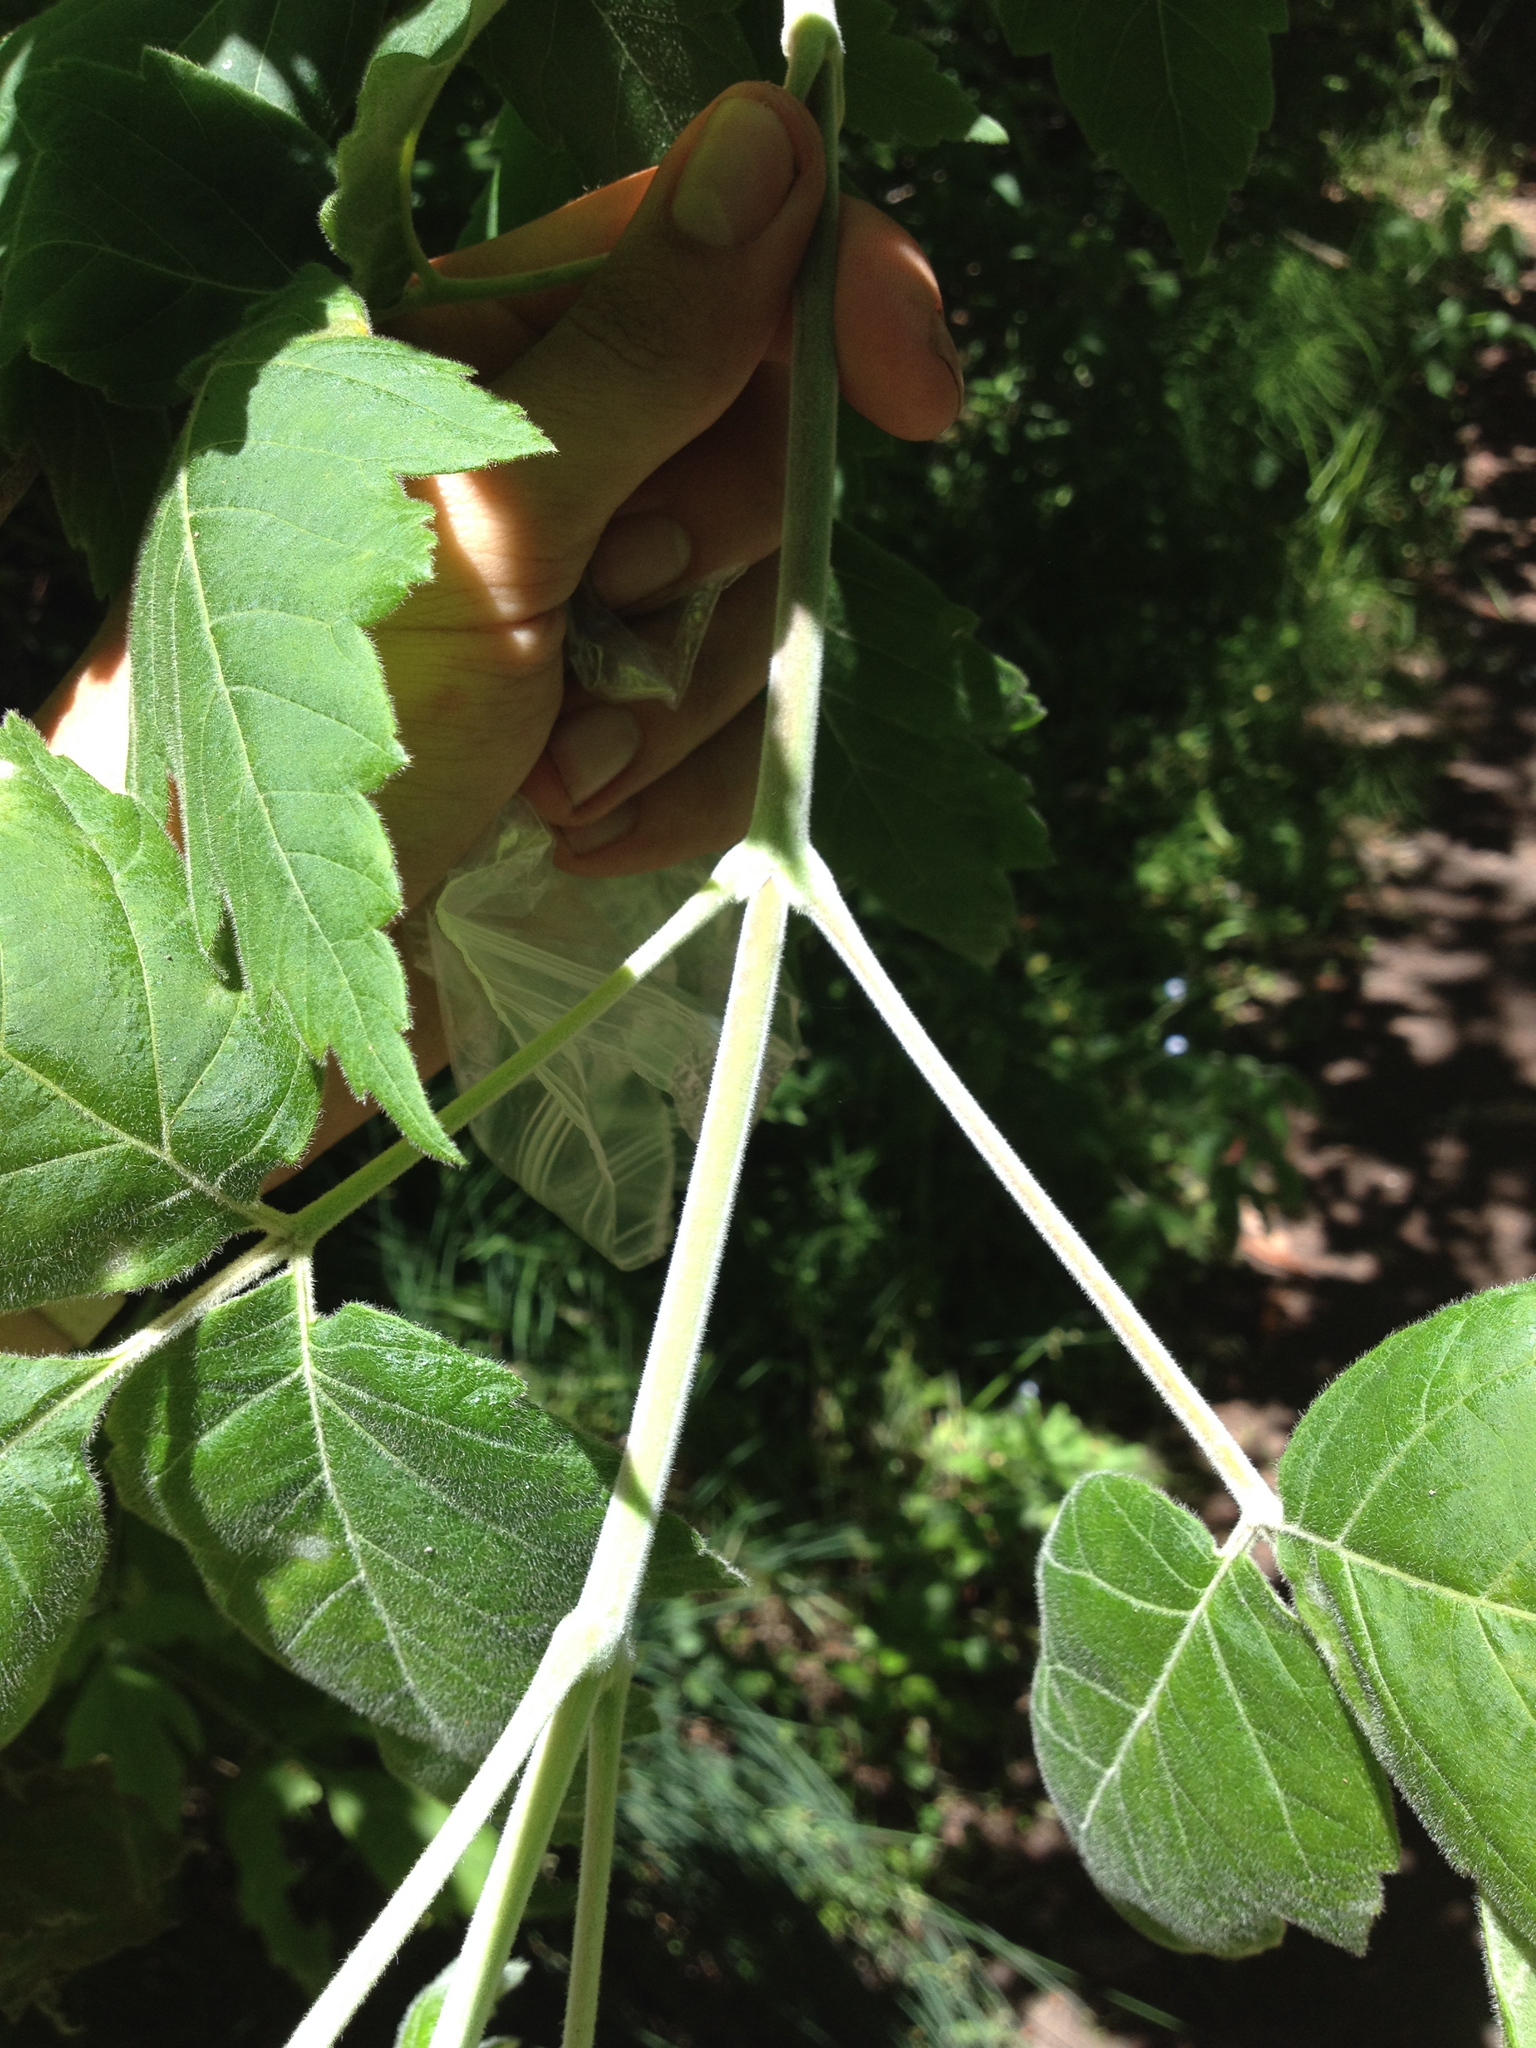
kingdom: Plantae
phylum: Tracheophyta
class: Magnoliopsida
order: Sapindales
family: Sapindaceae
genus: Acer
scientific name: Acer negundo
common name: Ashleaf maple
